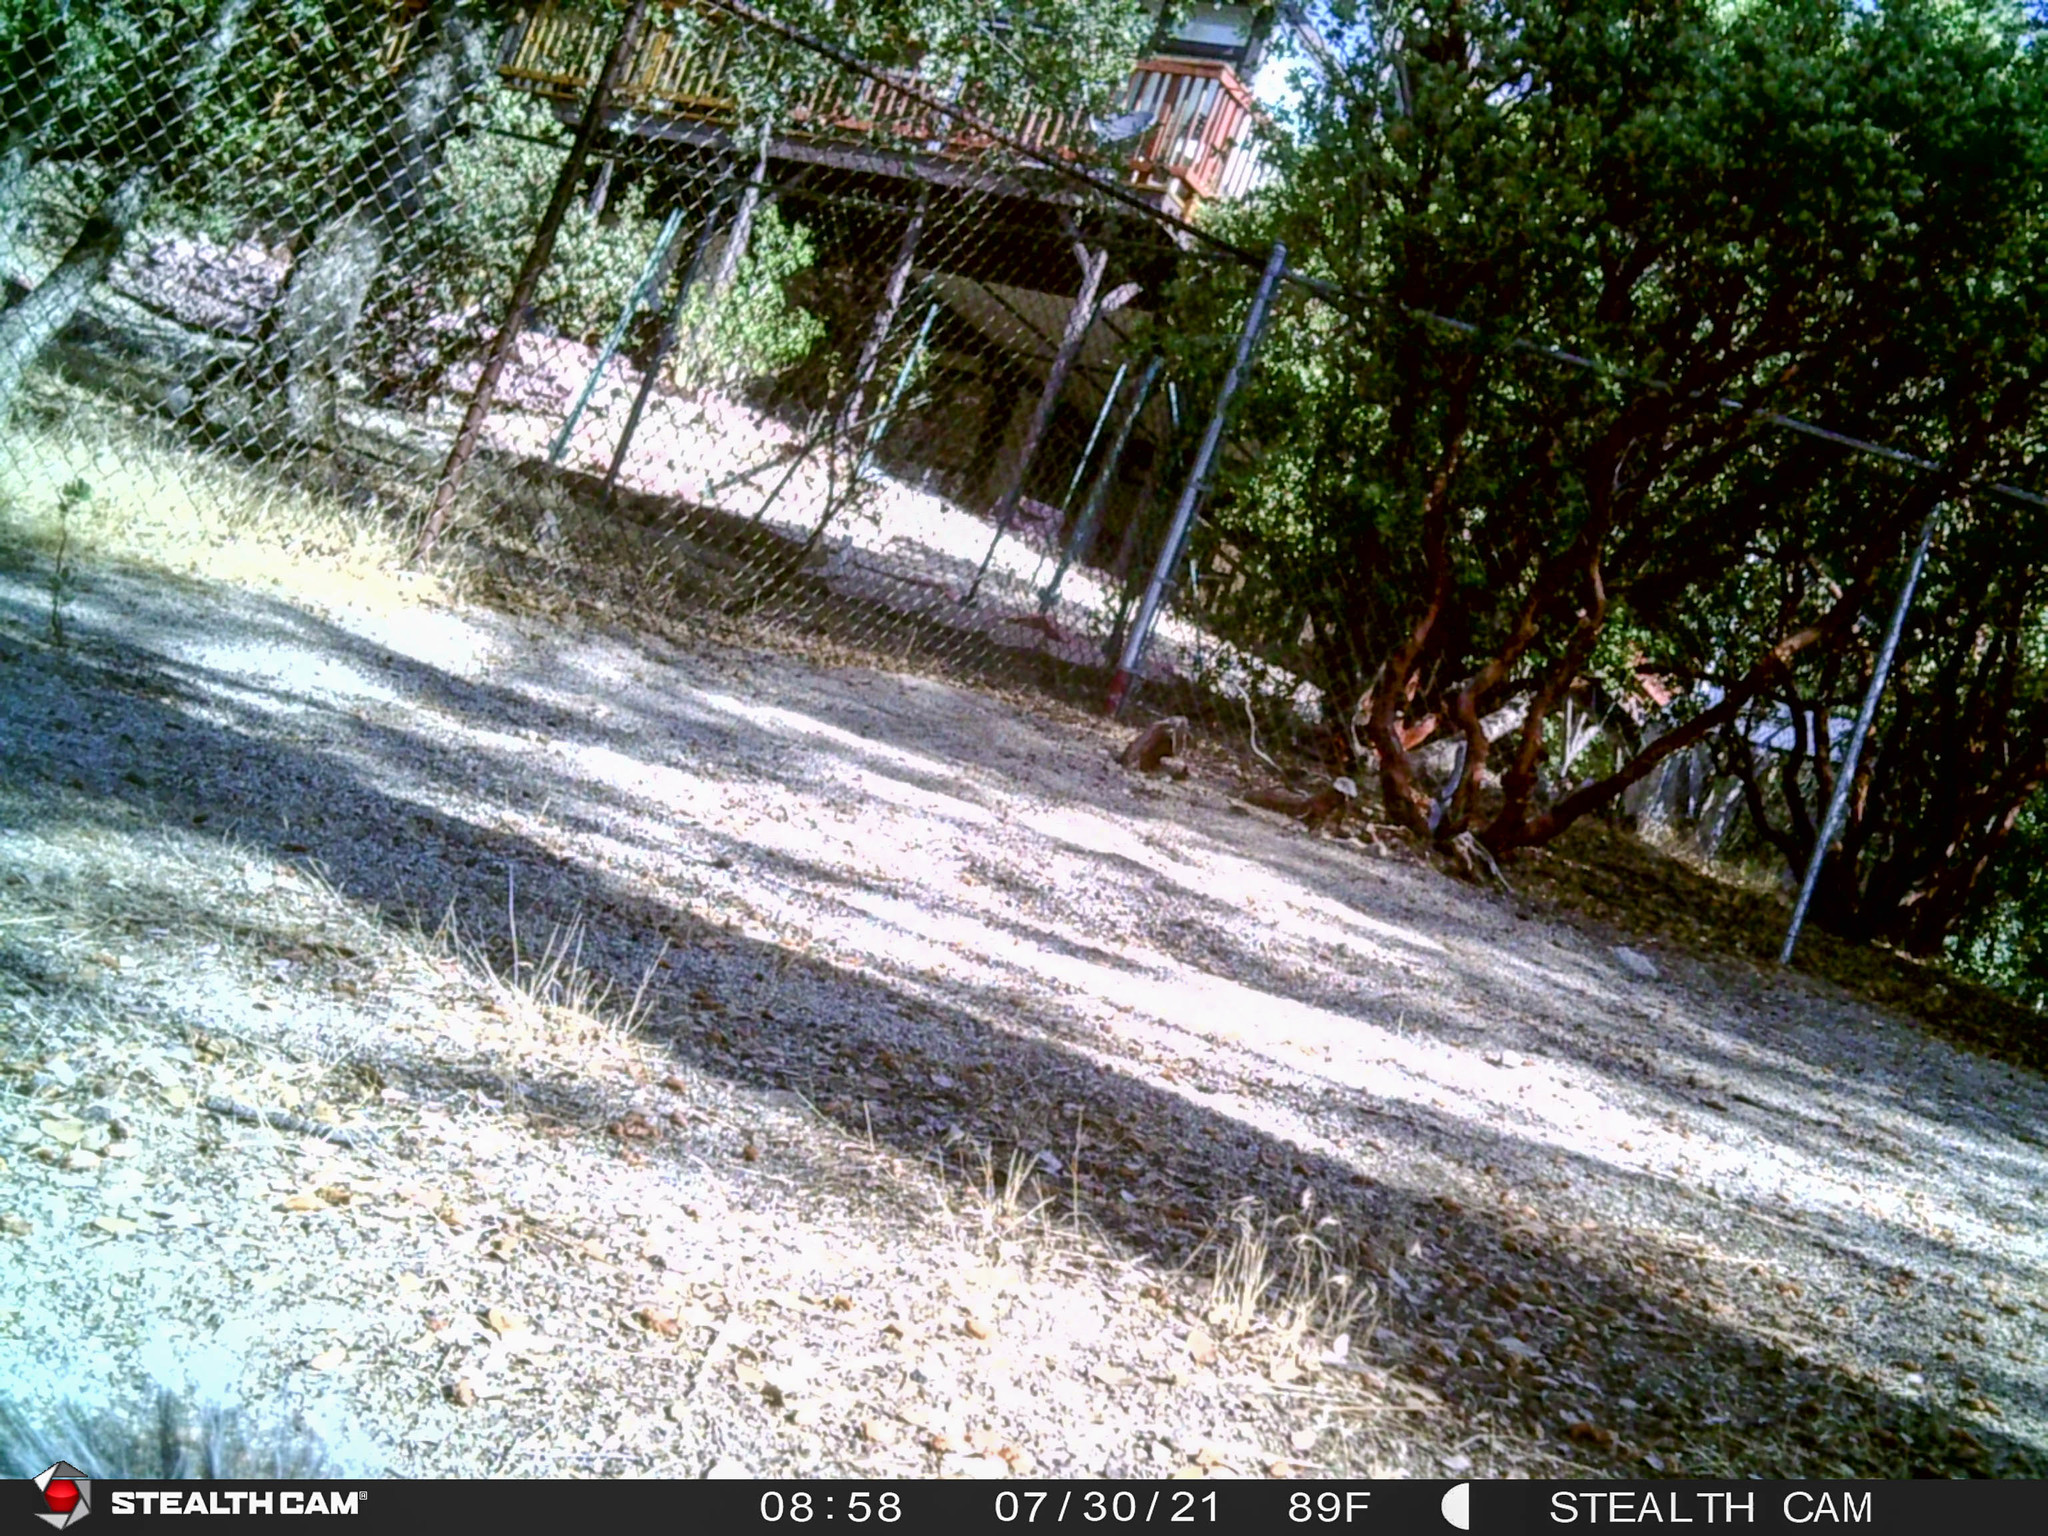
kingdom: Animalia
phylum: Chordata
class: Mammalia
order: Rodentia
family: Sciuridae
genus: Sciurus
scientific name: Sciurus griseus
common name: Western gray squirrel
